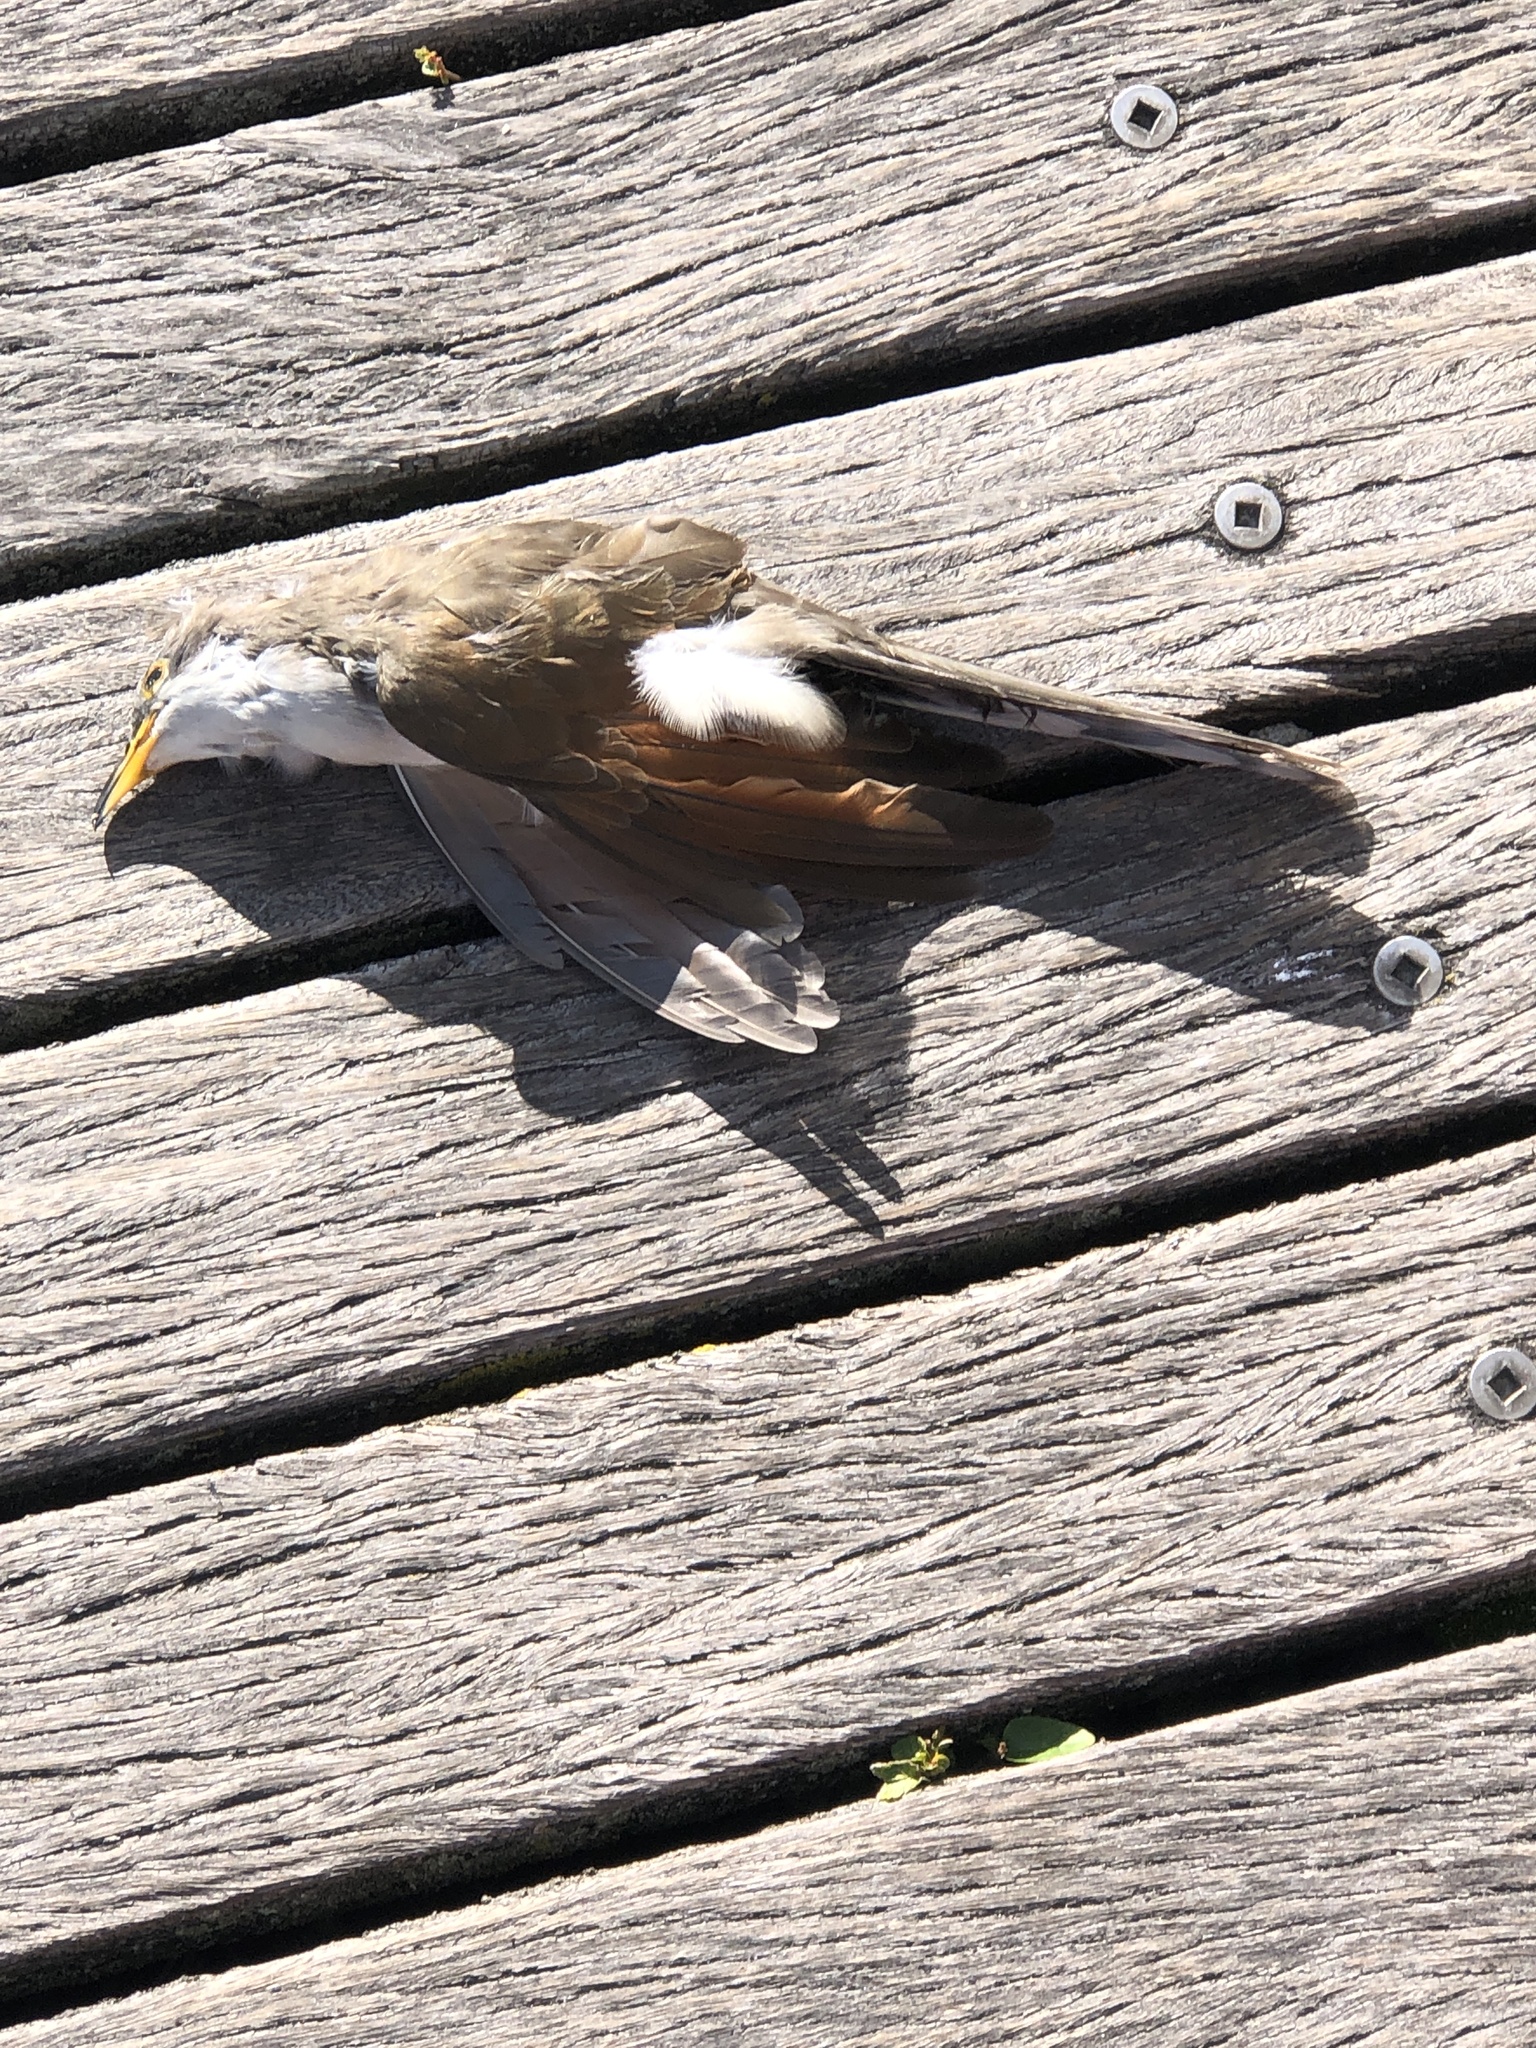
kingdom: Animalia
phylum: Chordata
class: Aves
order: Cuculiformes
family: Cuculidae
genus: Coccyzus
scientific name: Coccyzus americanus
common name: Yellow-billed cuckoo
